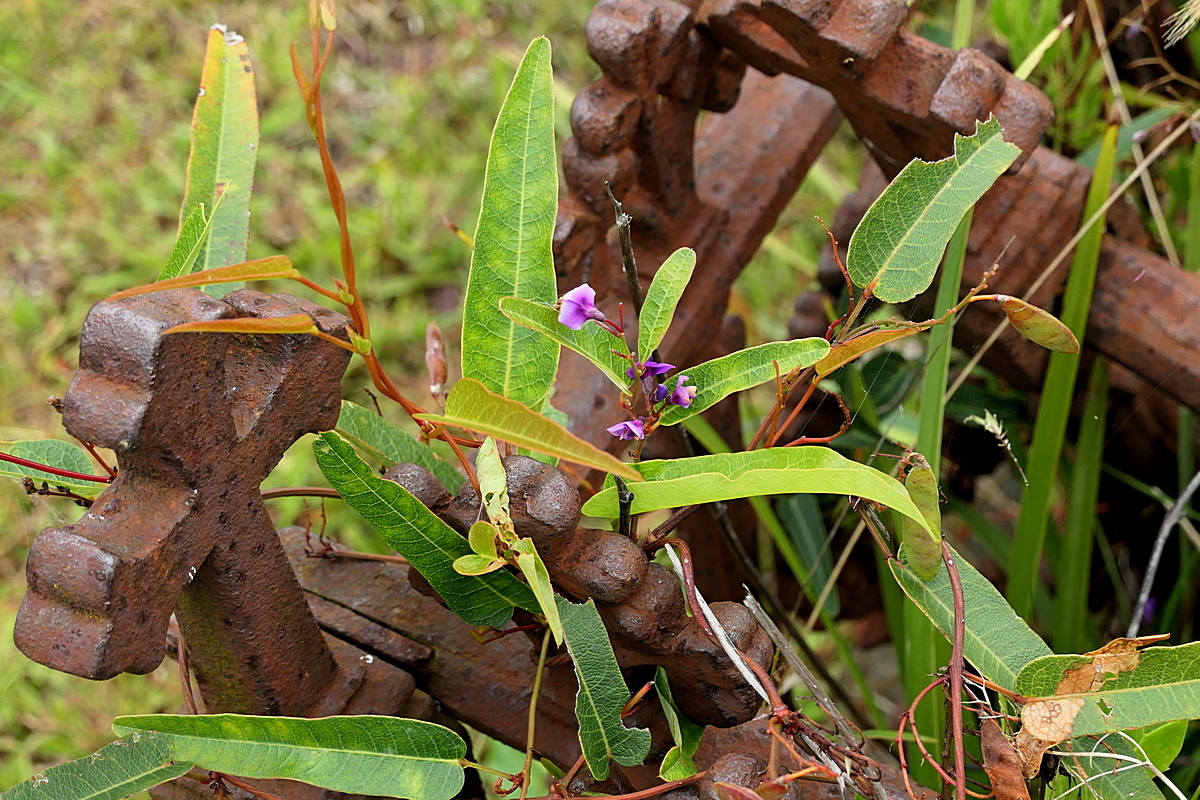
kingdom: Plantae
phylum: Tracheophyta
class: Magnoliopsida
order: Fabales
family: Fabaceae
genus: Hardenbergia
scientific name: Hardenbergia violacea
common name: Coral-pea
